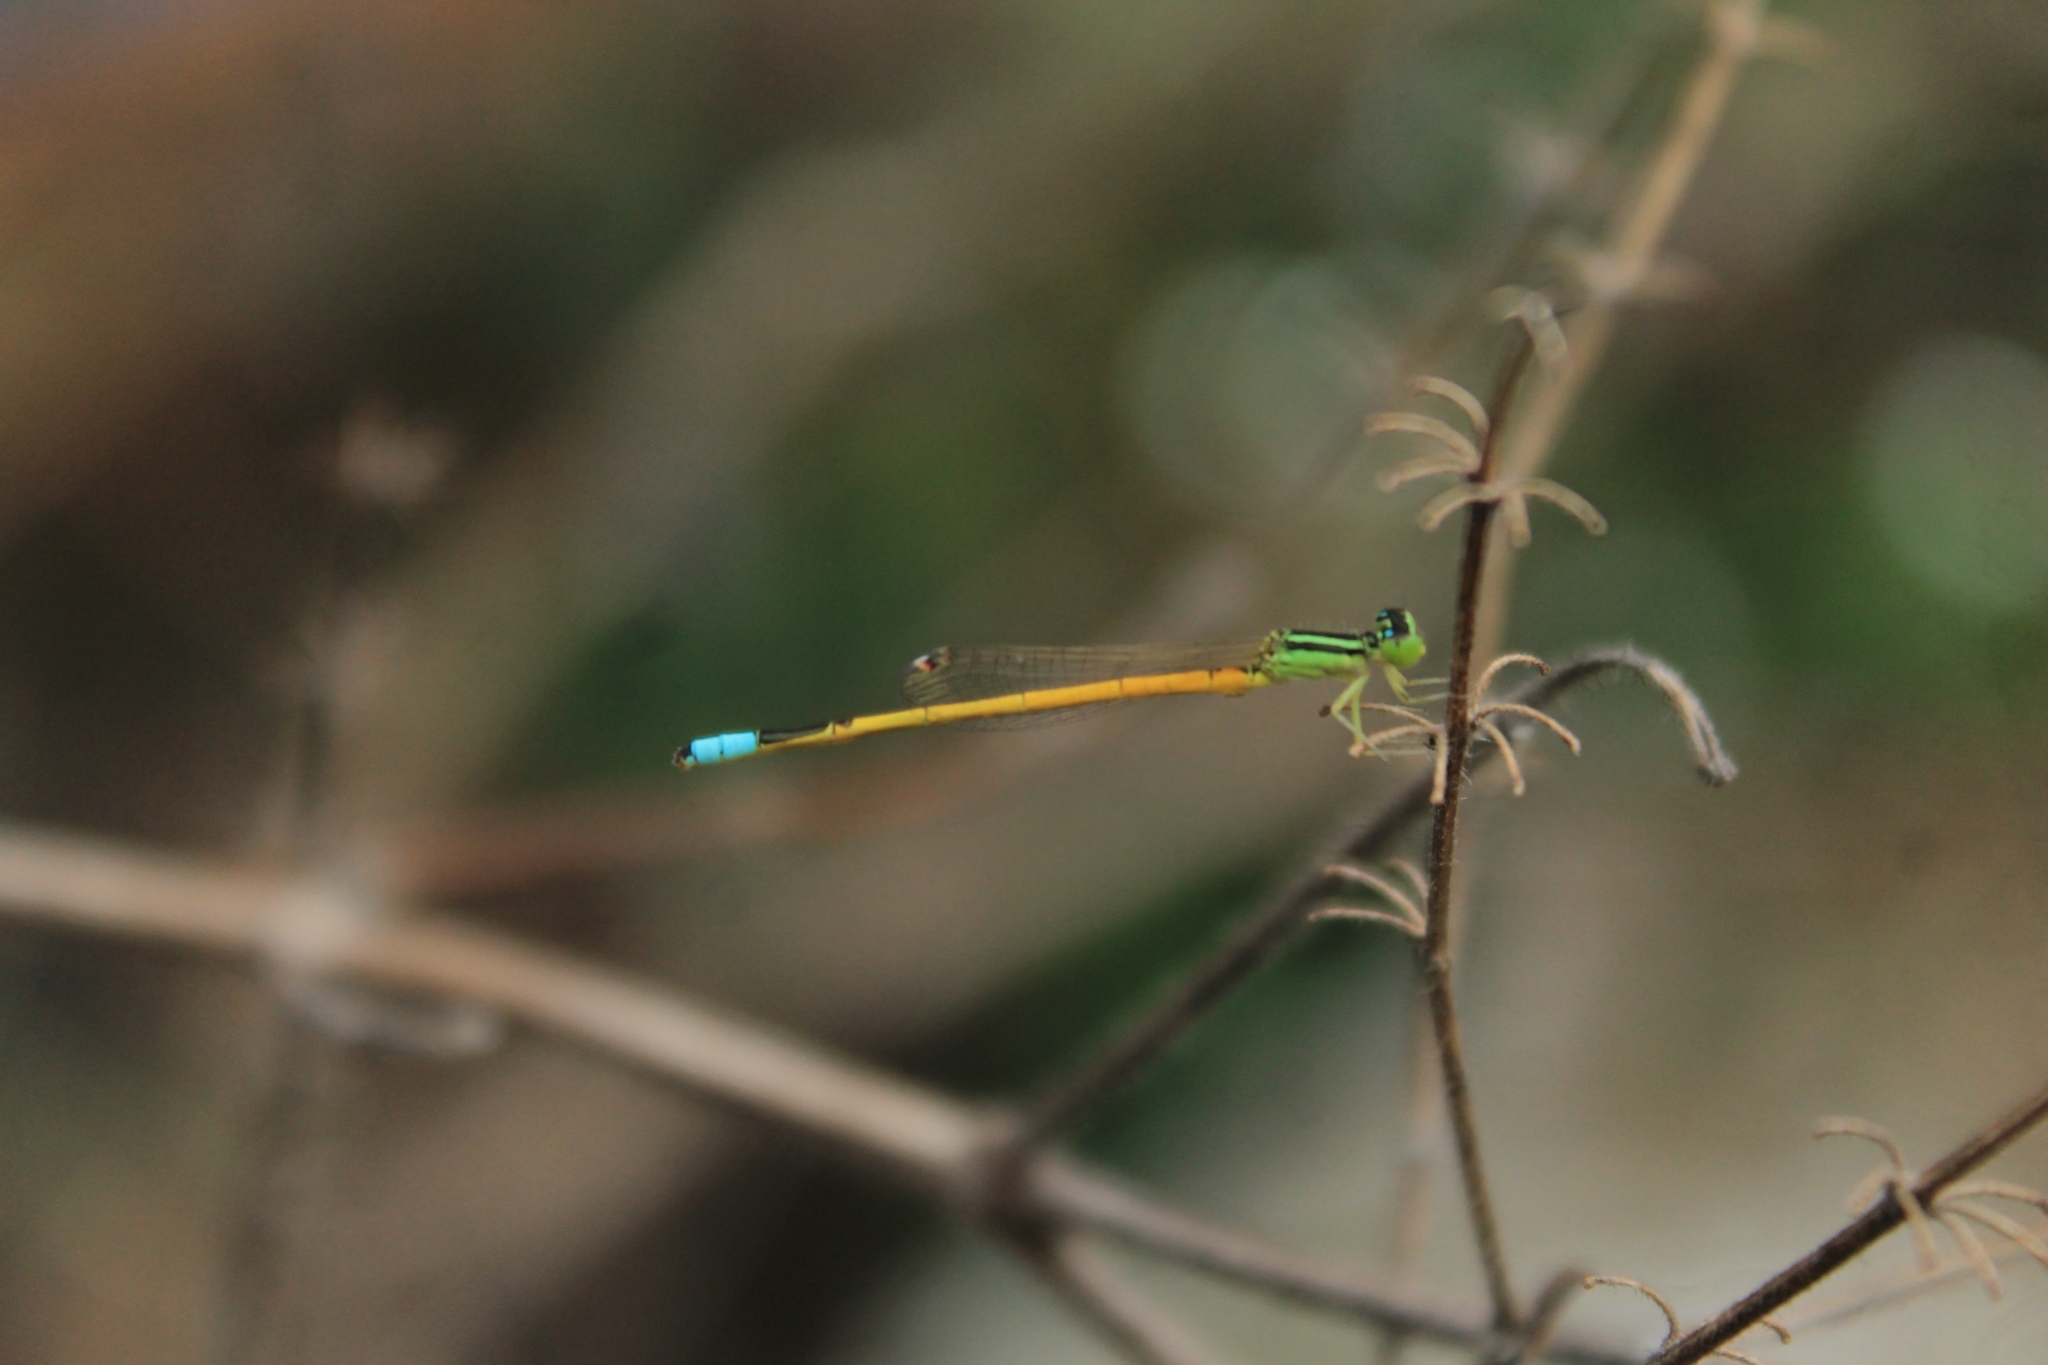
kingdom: Animalia
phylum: Arthropoda
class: Insecta
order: Odonata
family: Coenagrionidae
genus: Ischnura
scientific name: Ischnura rubilio
